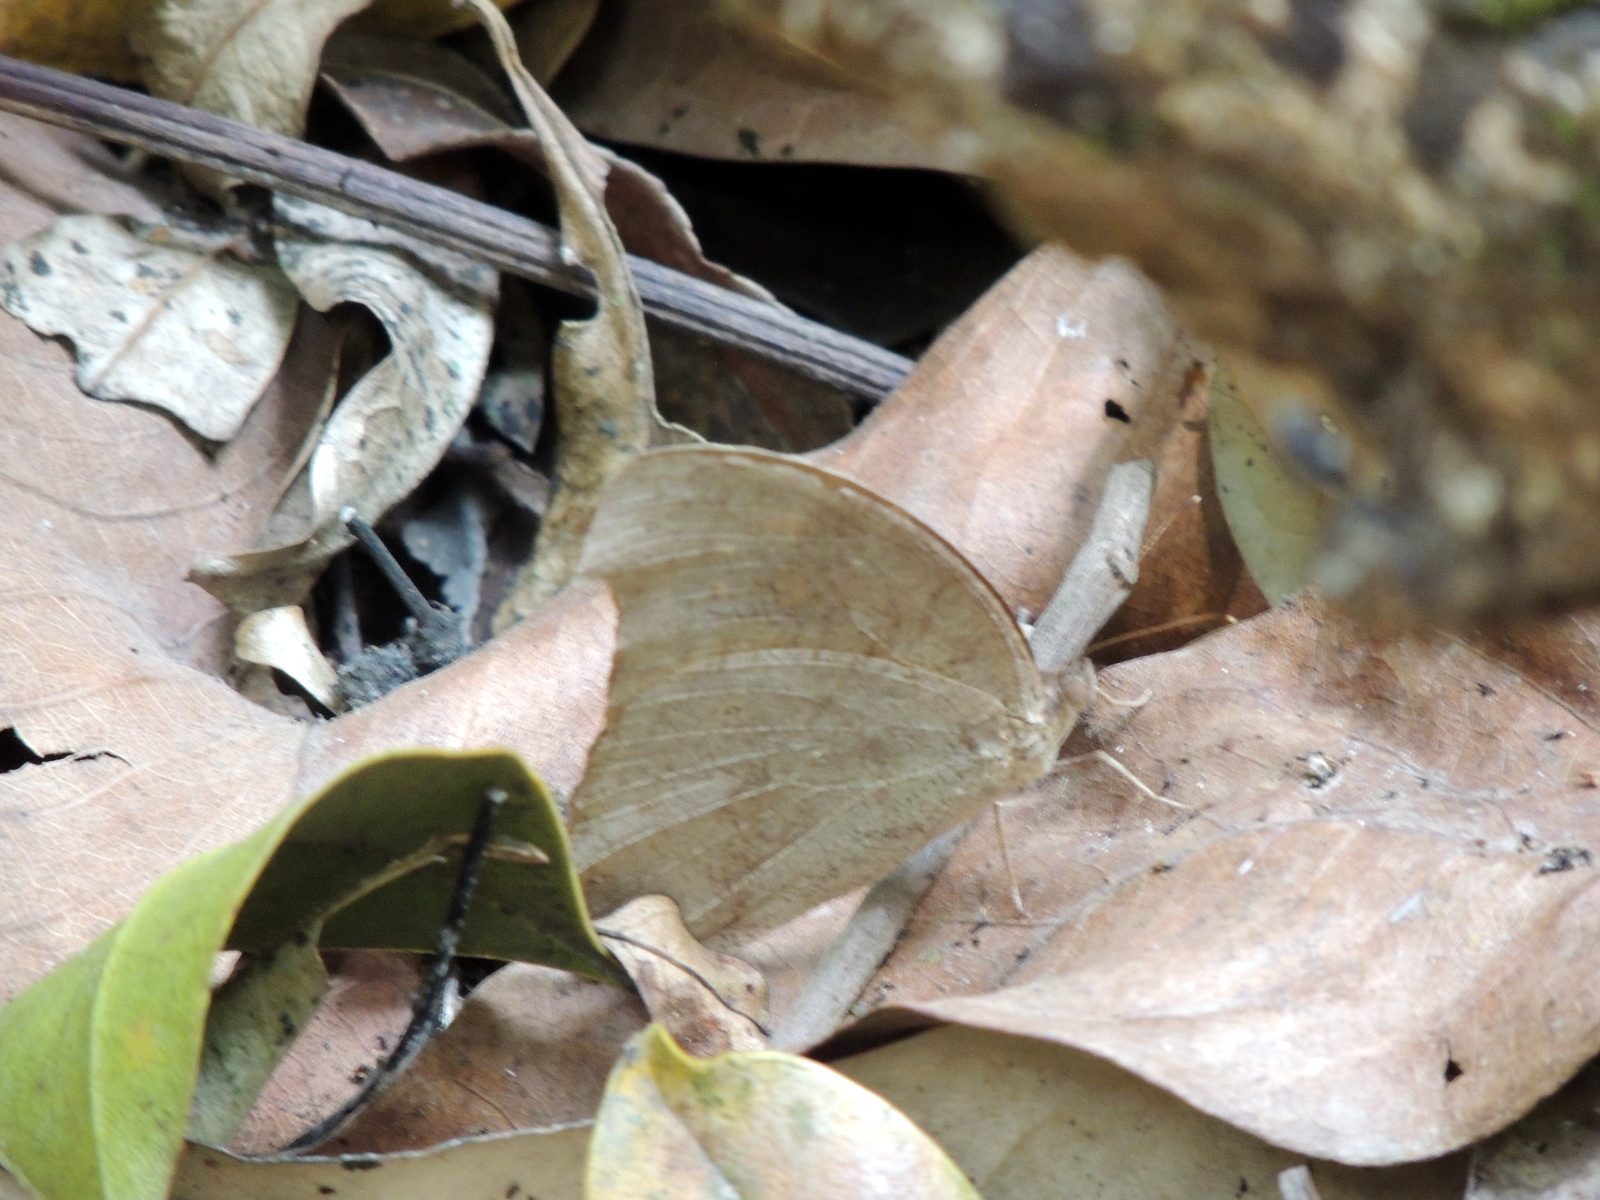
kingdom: Animalia
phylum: Arthropoda
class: Insecta
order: Lepidoptera
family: Nymphalidae
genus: Melanitis
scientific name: Melanitis leda
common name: Twilight brown
